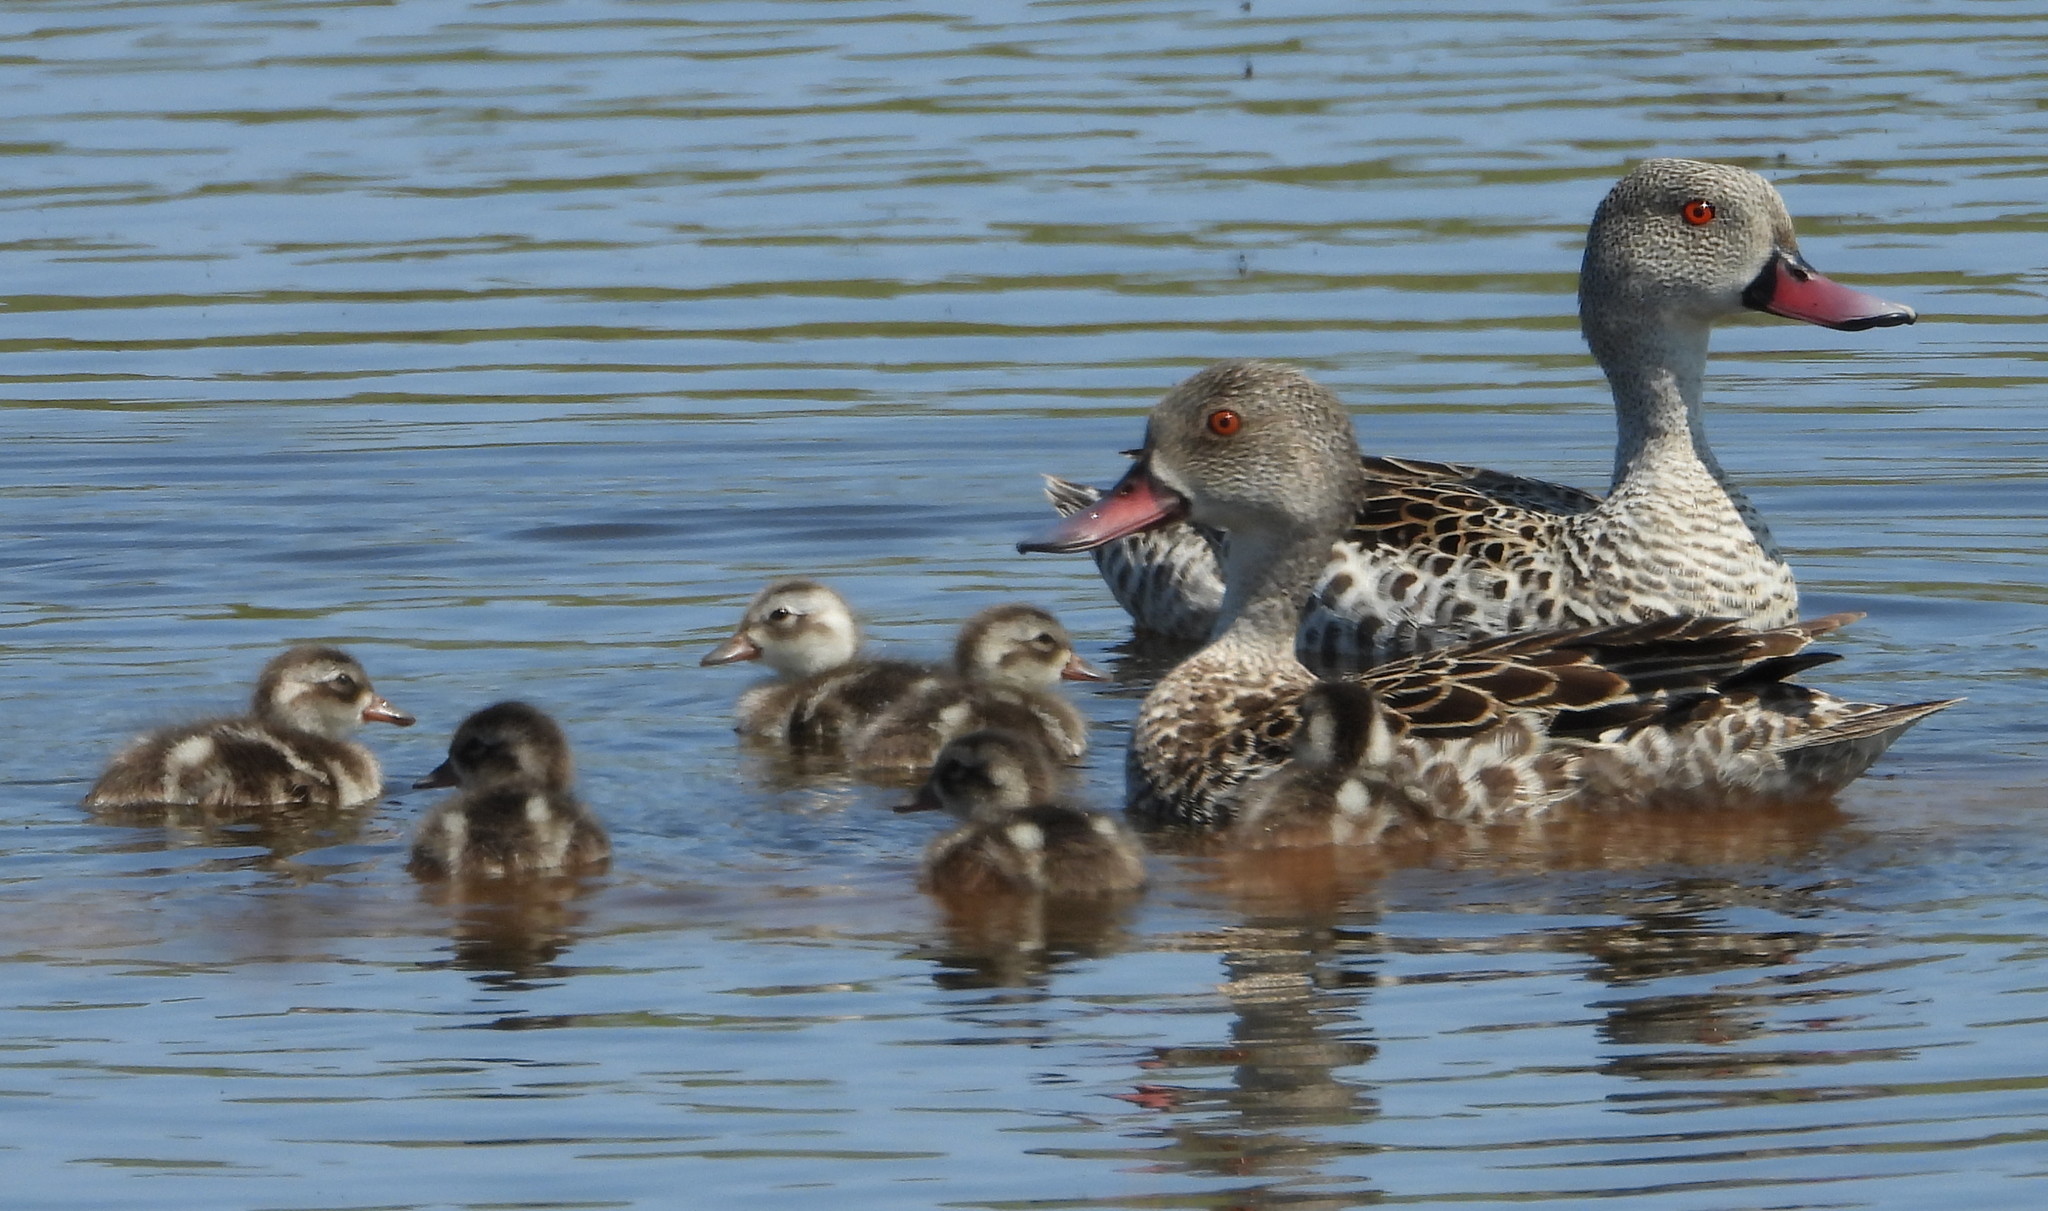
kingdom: Animalia
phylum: Chordata
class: Aves
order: Anseriformes
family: Anatidae
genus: Anas
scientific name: Anas capensis
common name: Cape teal
